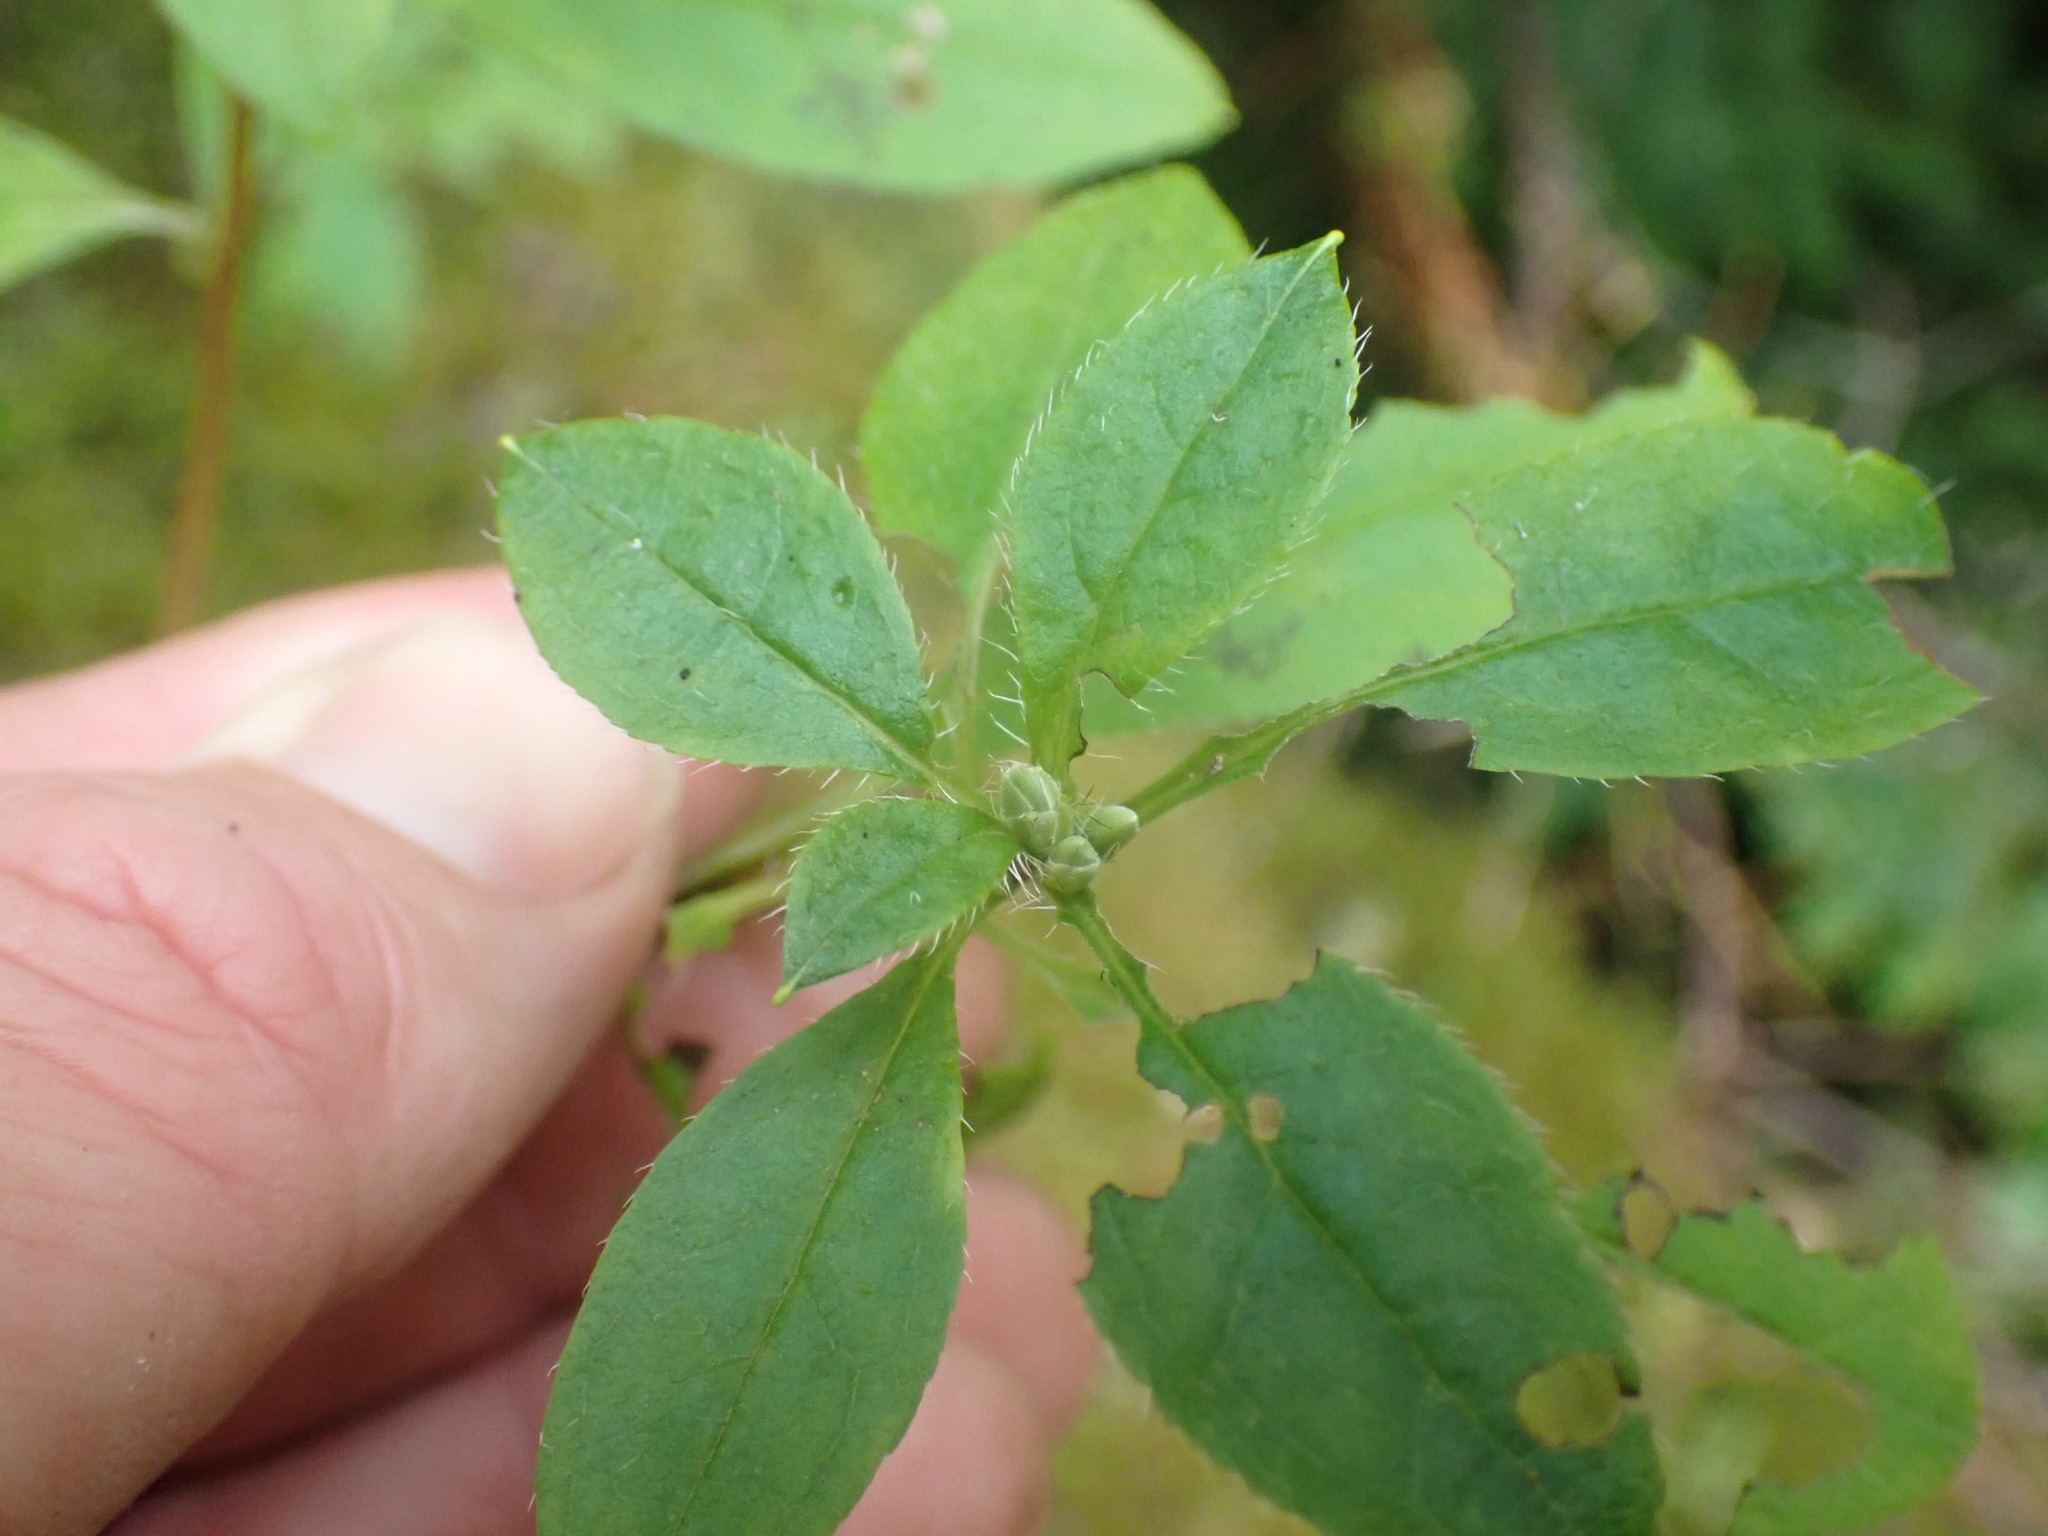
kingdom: Plantae
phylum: Tracheophyta
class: Magnoliopsida
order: Ericales
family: Ericaceae
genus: Rhododendron
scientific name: Rhododendron menziesii
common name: Pacific menziesia
